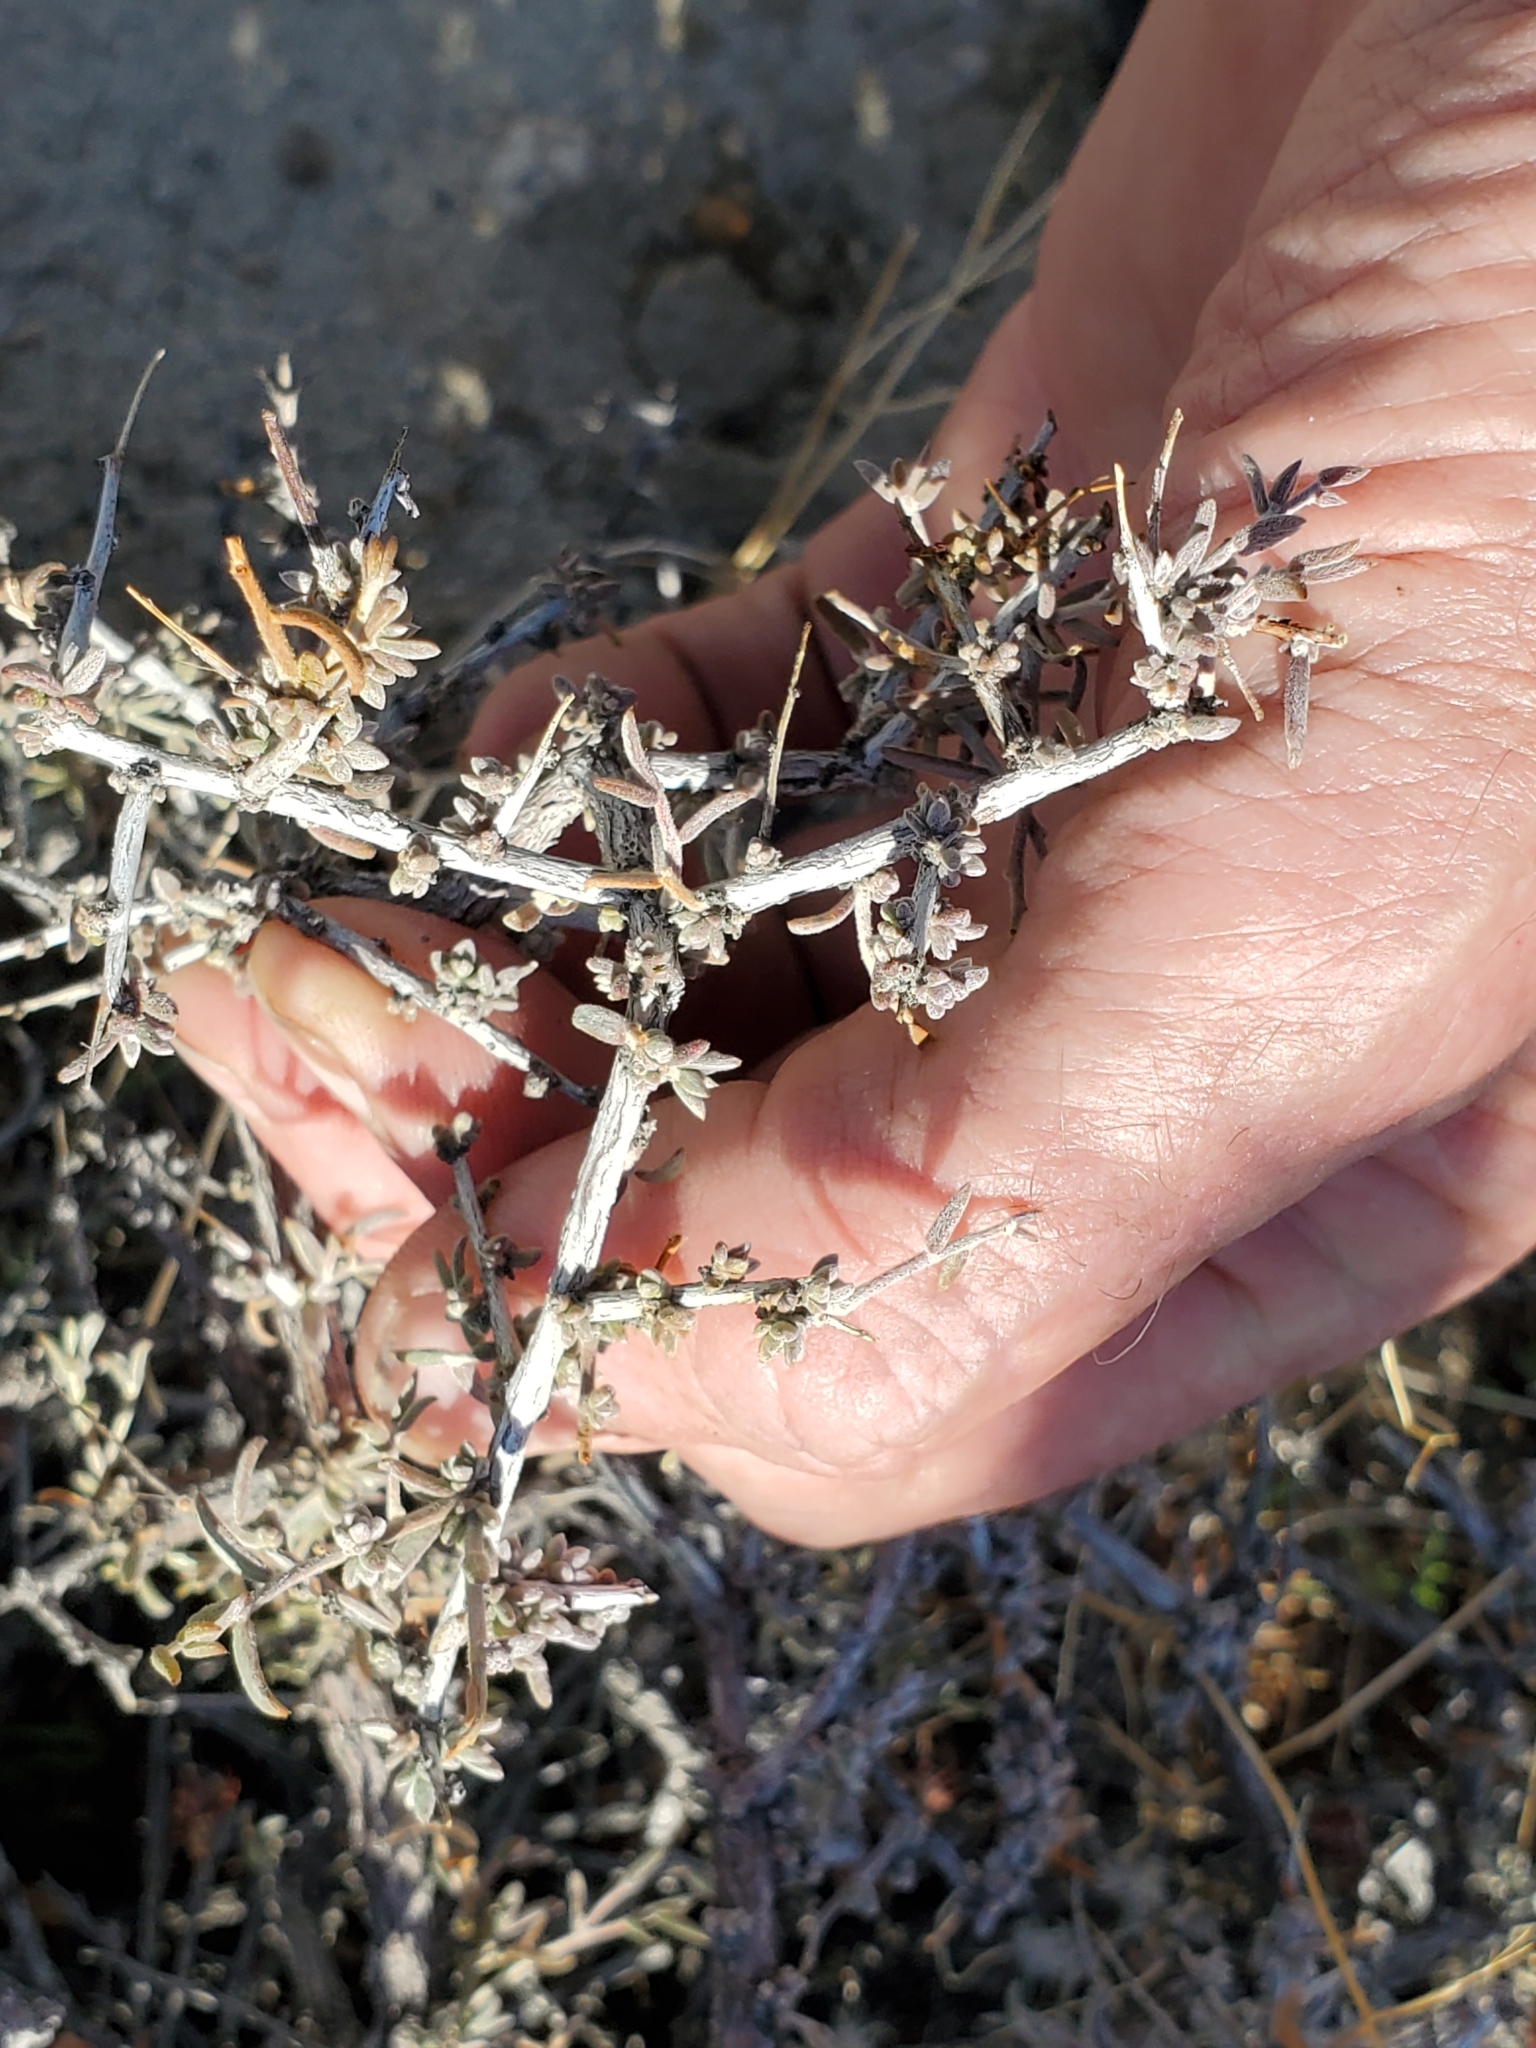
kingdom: Plantae
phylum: Tracheophyta
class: Magnoliopsida
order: Zygophyllales
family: Krameriaceae
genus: Krameria
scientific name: Krameria erecta
